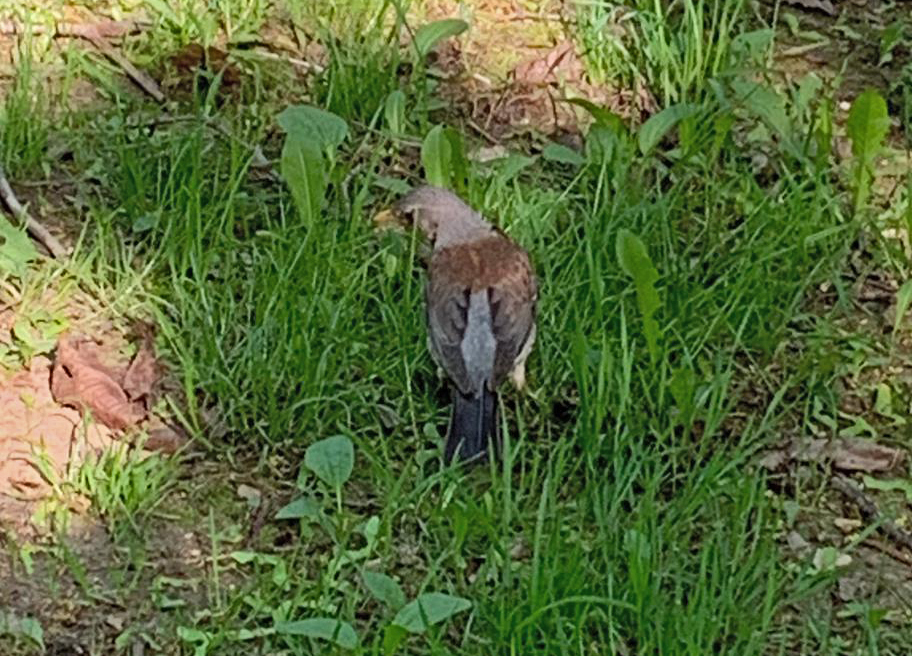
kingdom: Animalia
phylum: Chordata
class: Aves
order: Passeriformes
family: Turdidae
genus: Turdus
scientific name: Turdus pilaris
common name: Fieldfare
